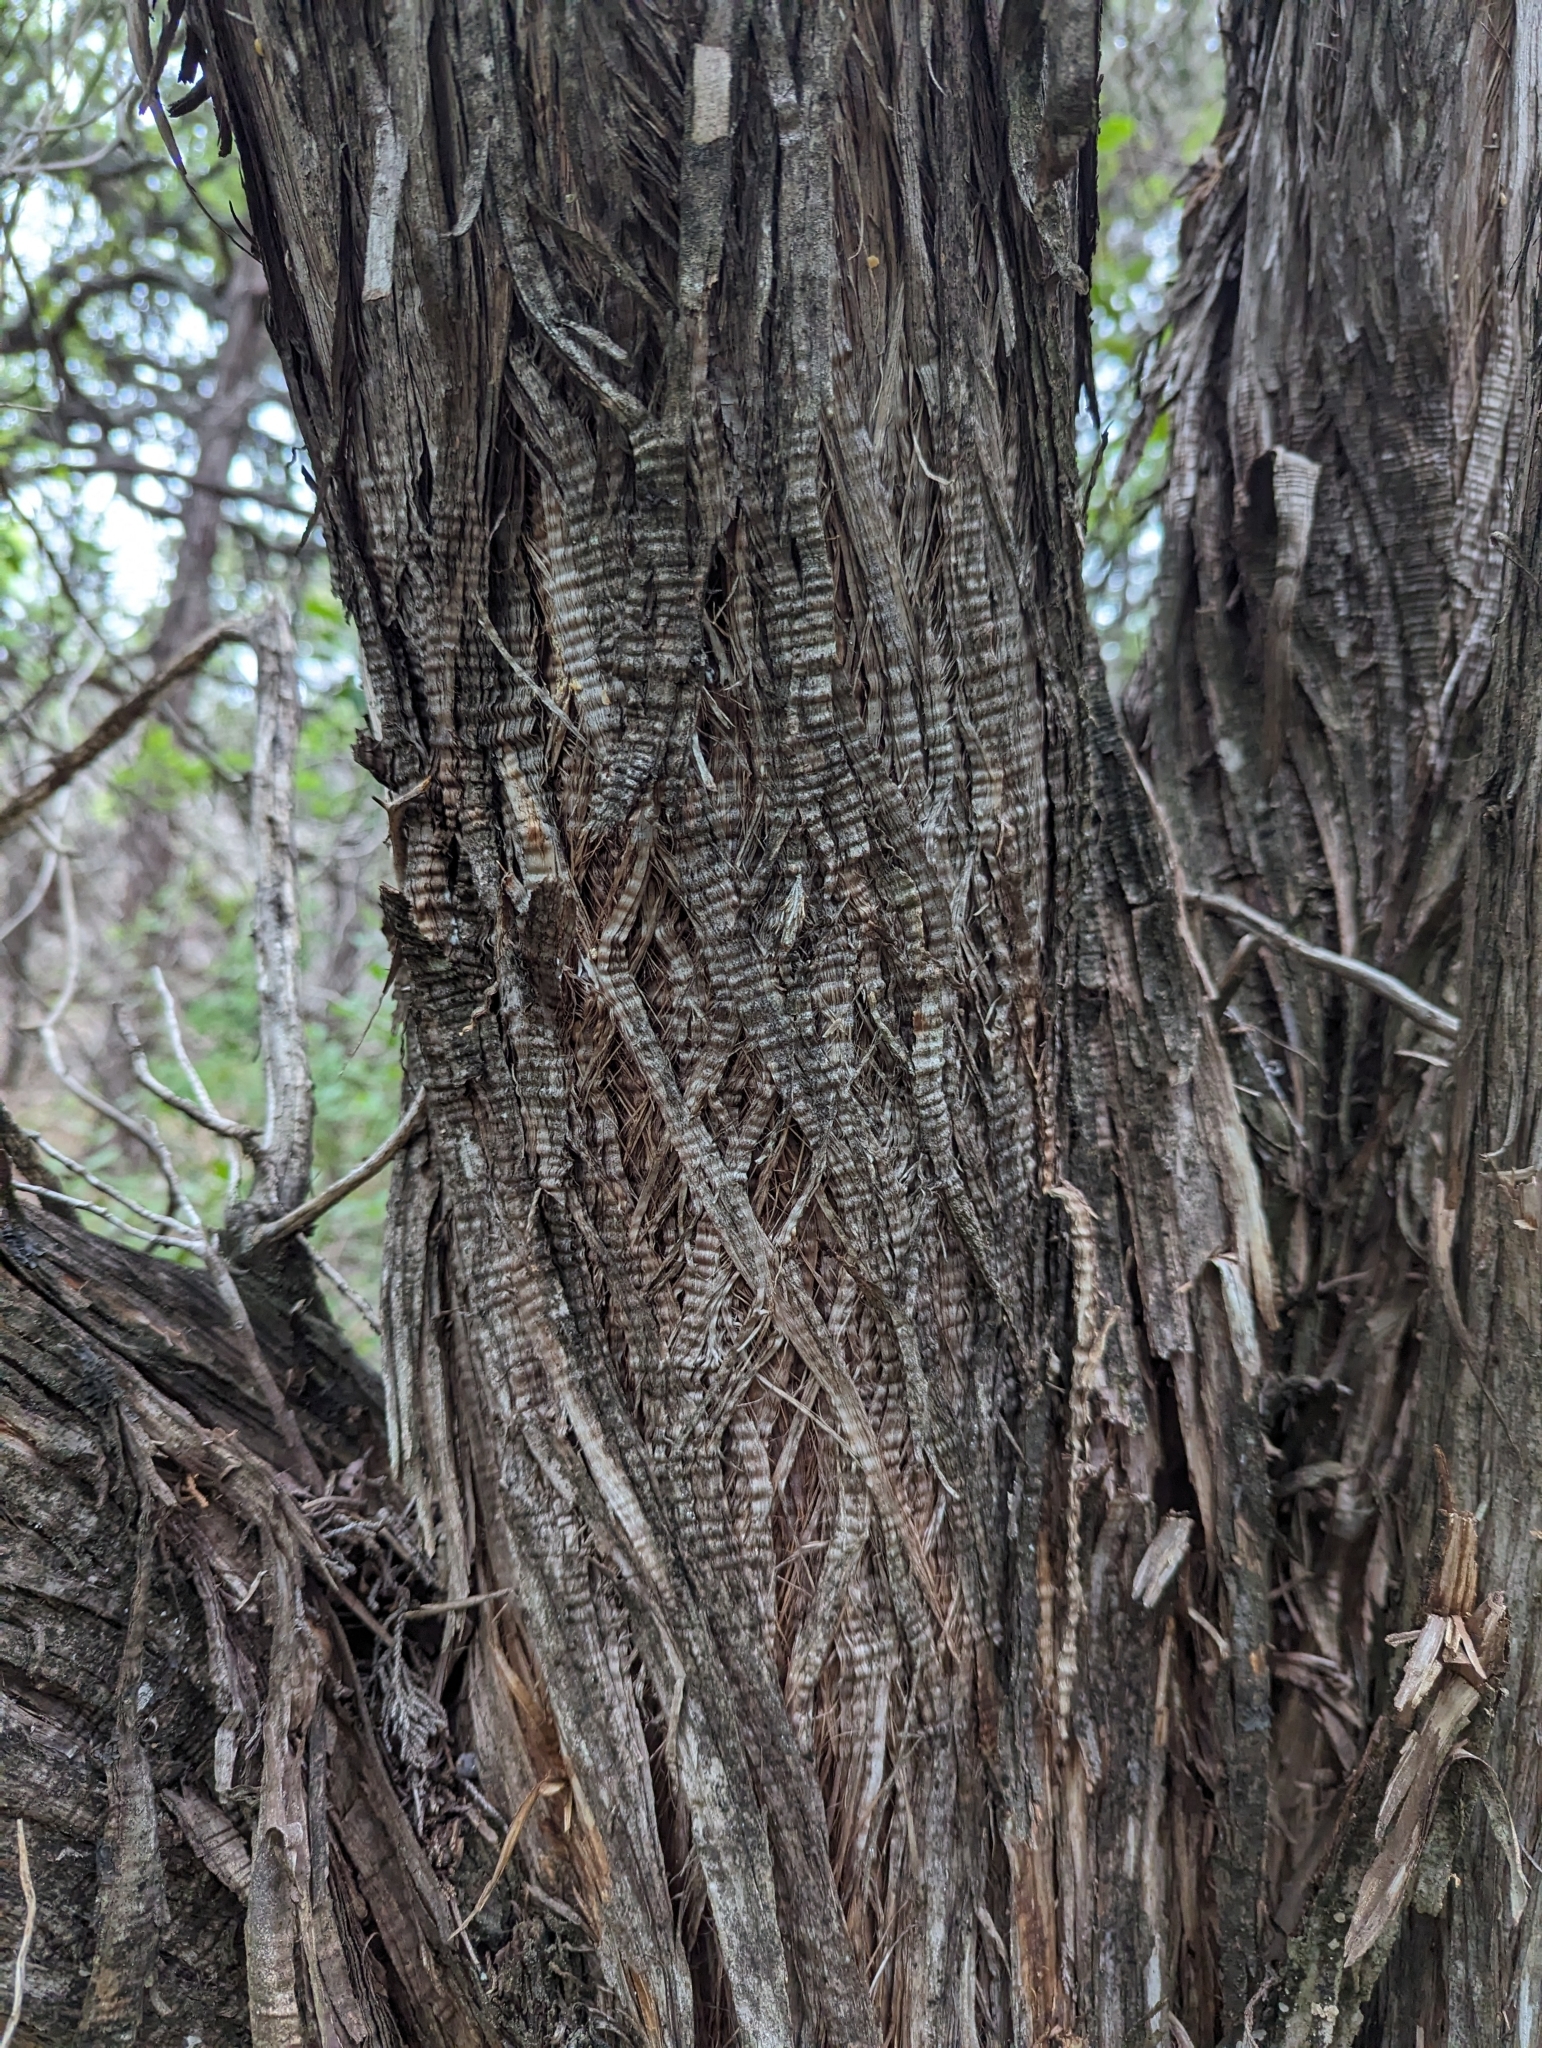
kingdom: Plantae
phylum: Tracheophyta
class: Pinopsida
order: Pinales
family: Cupressaceae
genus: Juniperus
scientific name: Juniperus ashei
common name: Mexican juniper
